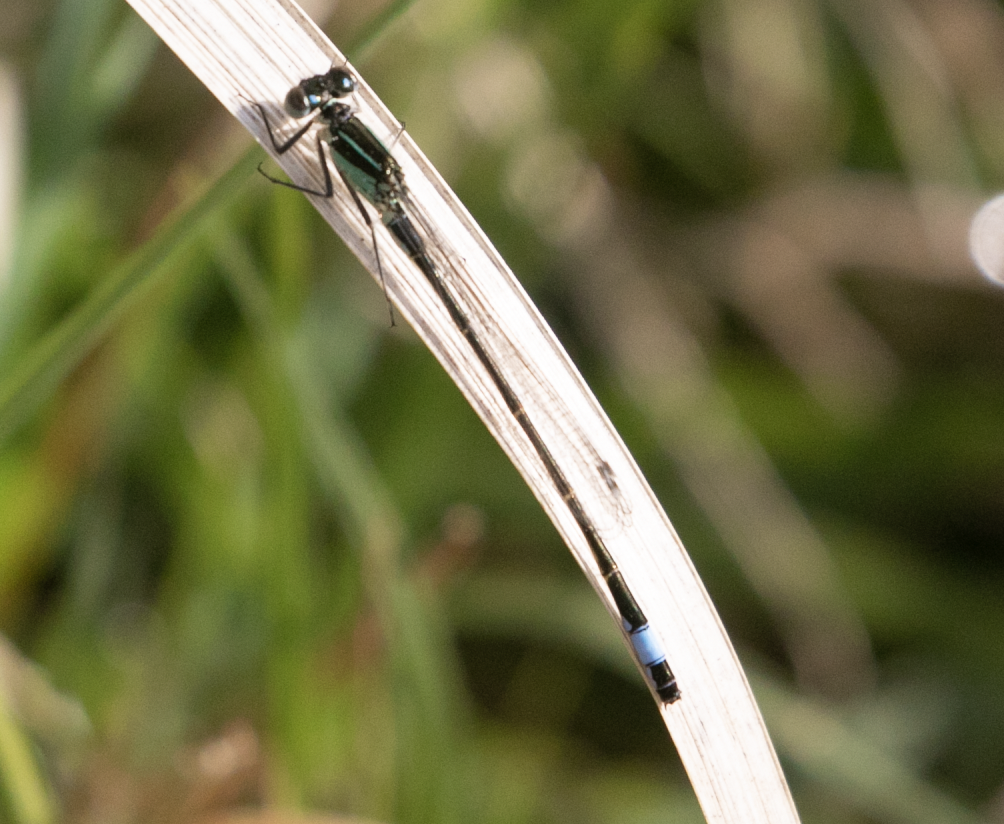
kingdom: Animalia
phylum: Arthropoda
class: Insecta
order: Odonata
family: Coenagrionidae
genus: Ischnura
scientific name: Ischnura elegans
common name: Blue-tailed damselfly
